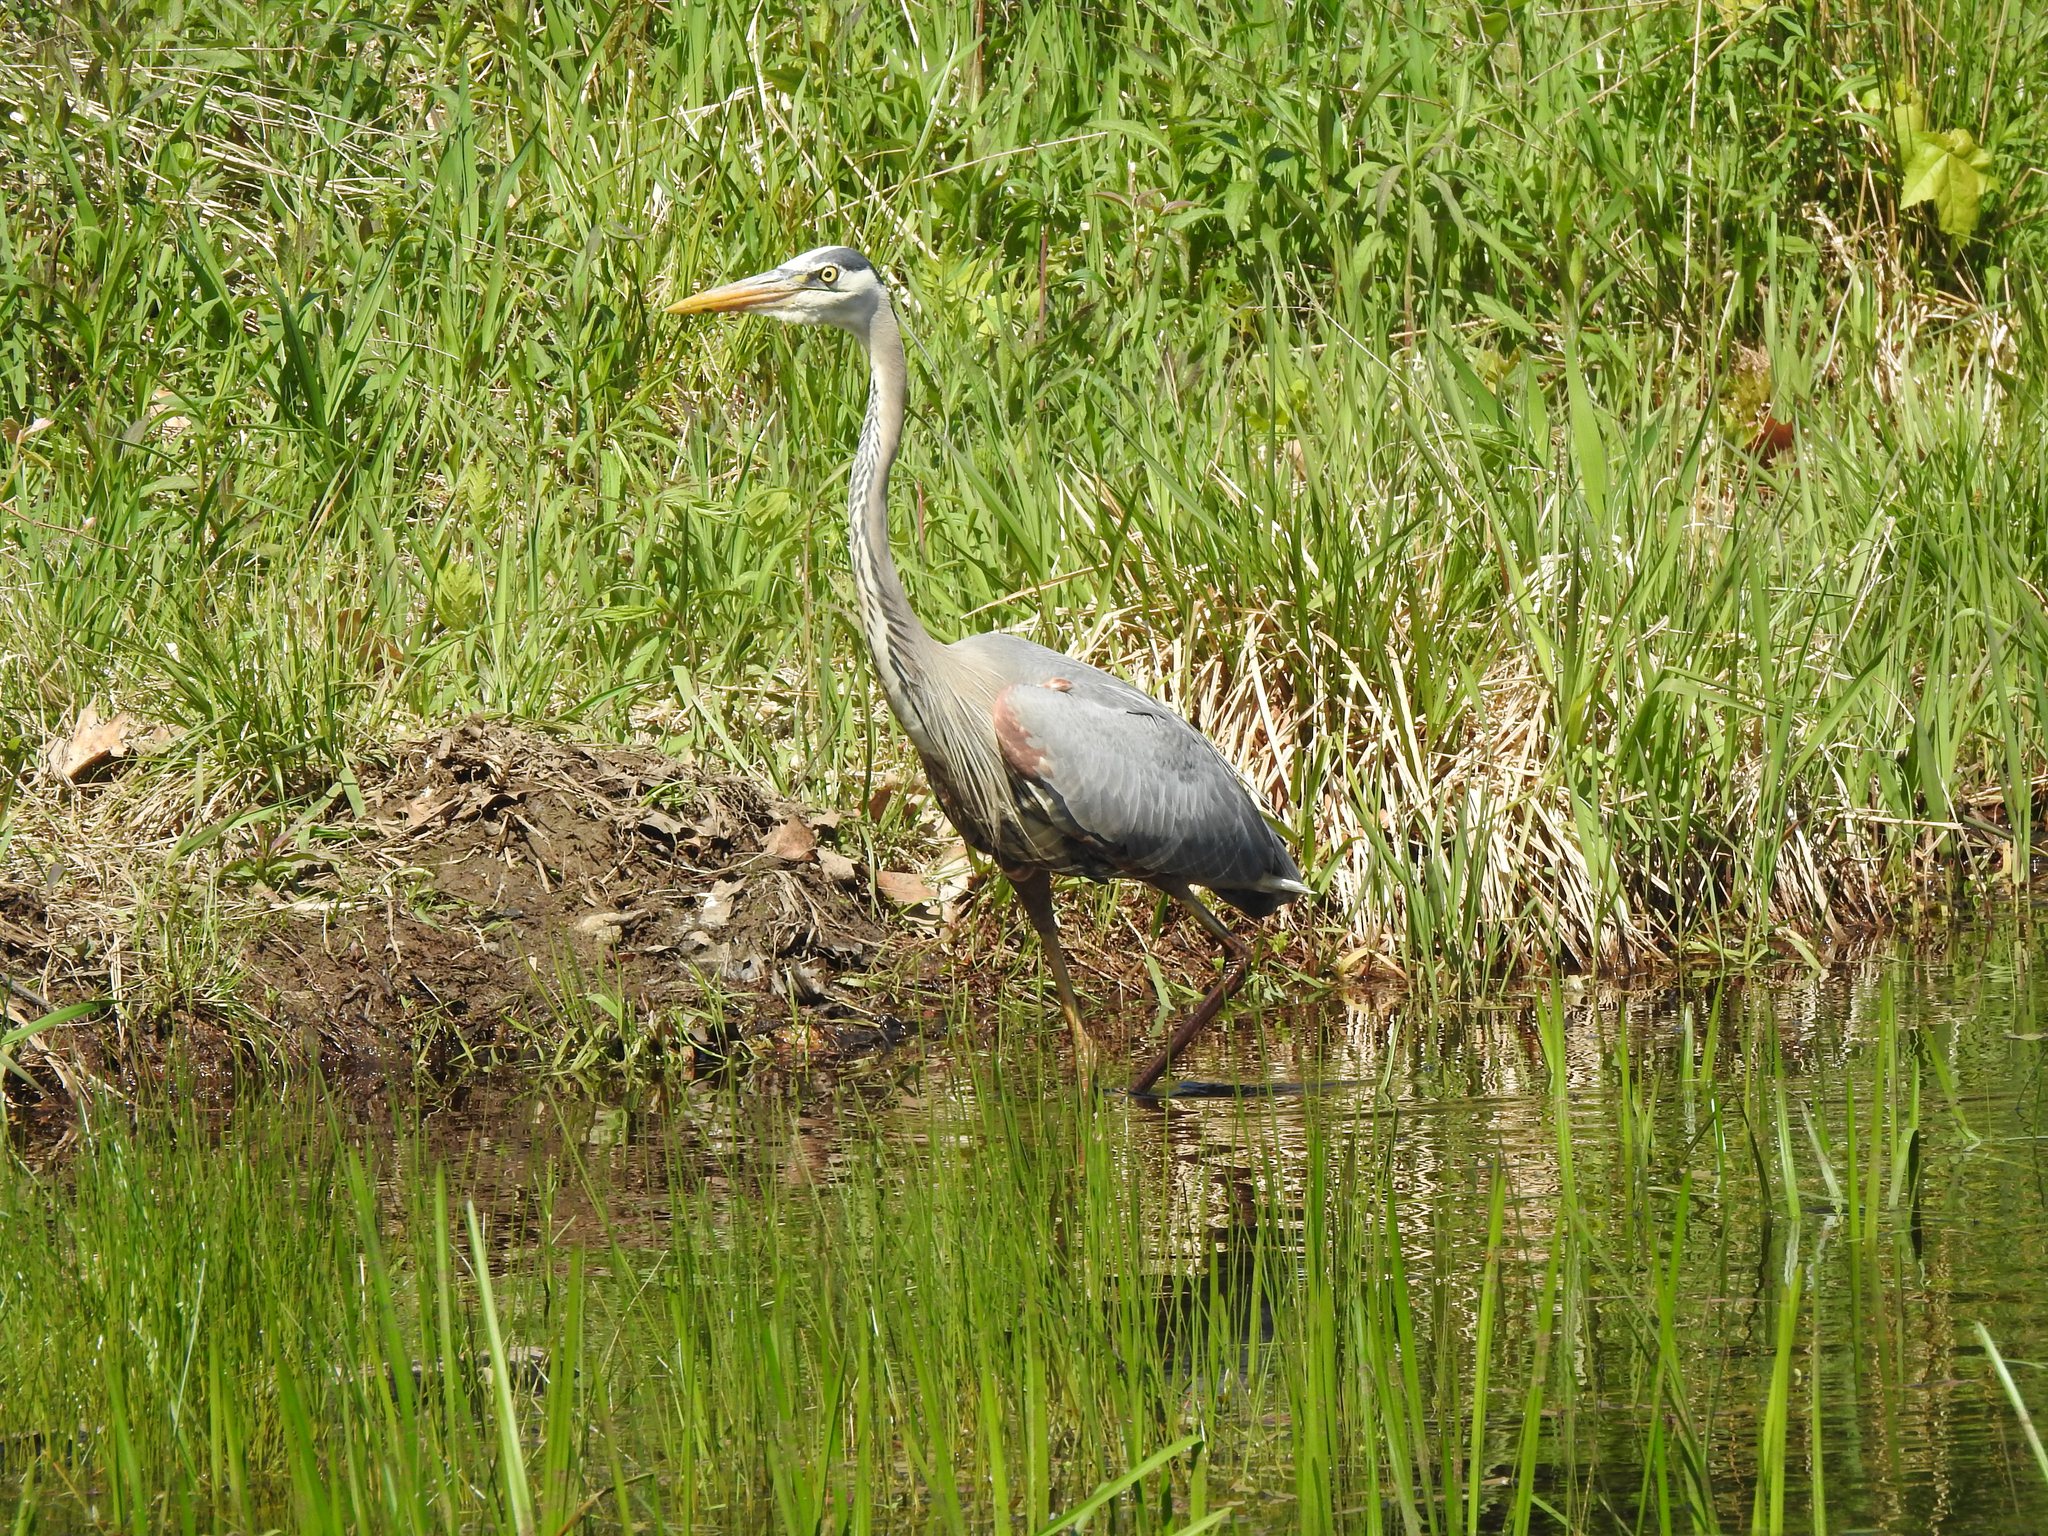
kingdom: Animalia
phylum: Chordata
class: Aves
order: Pelecaniformes
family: Ardeidae
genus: Ardea
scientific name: Ardea herodias
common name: Great blue heron
